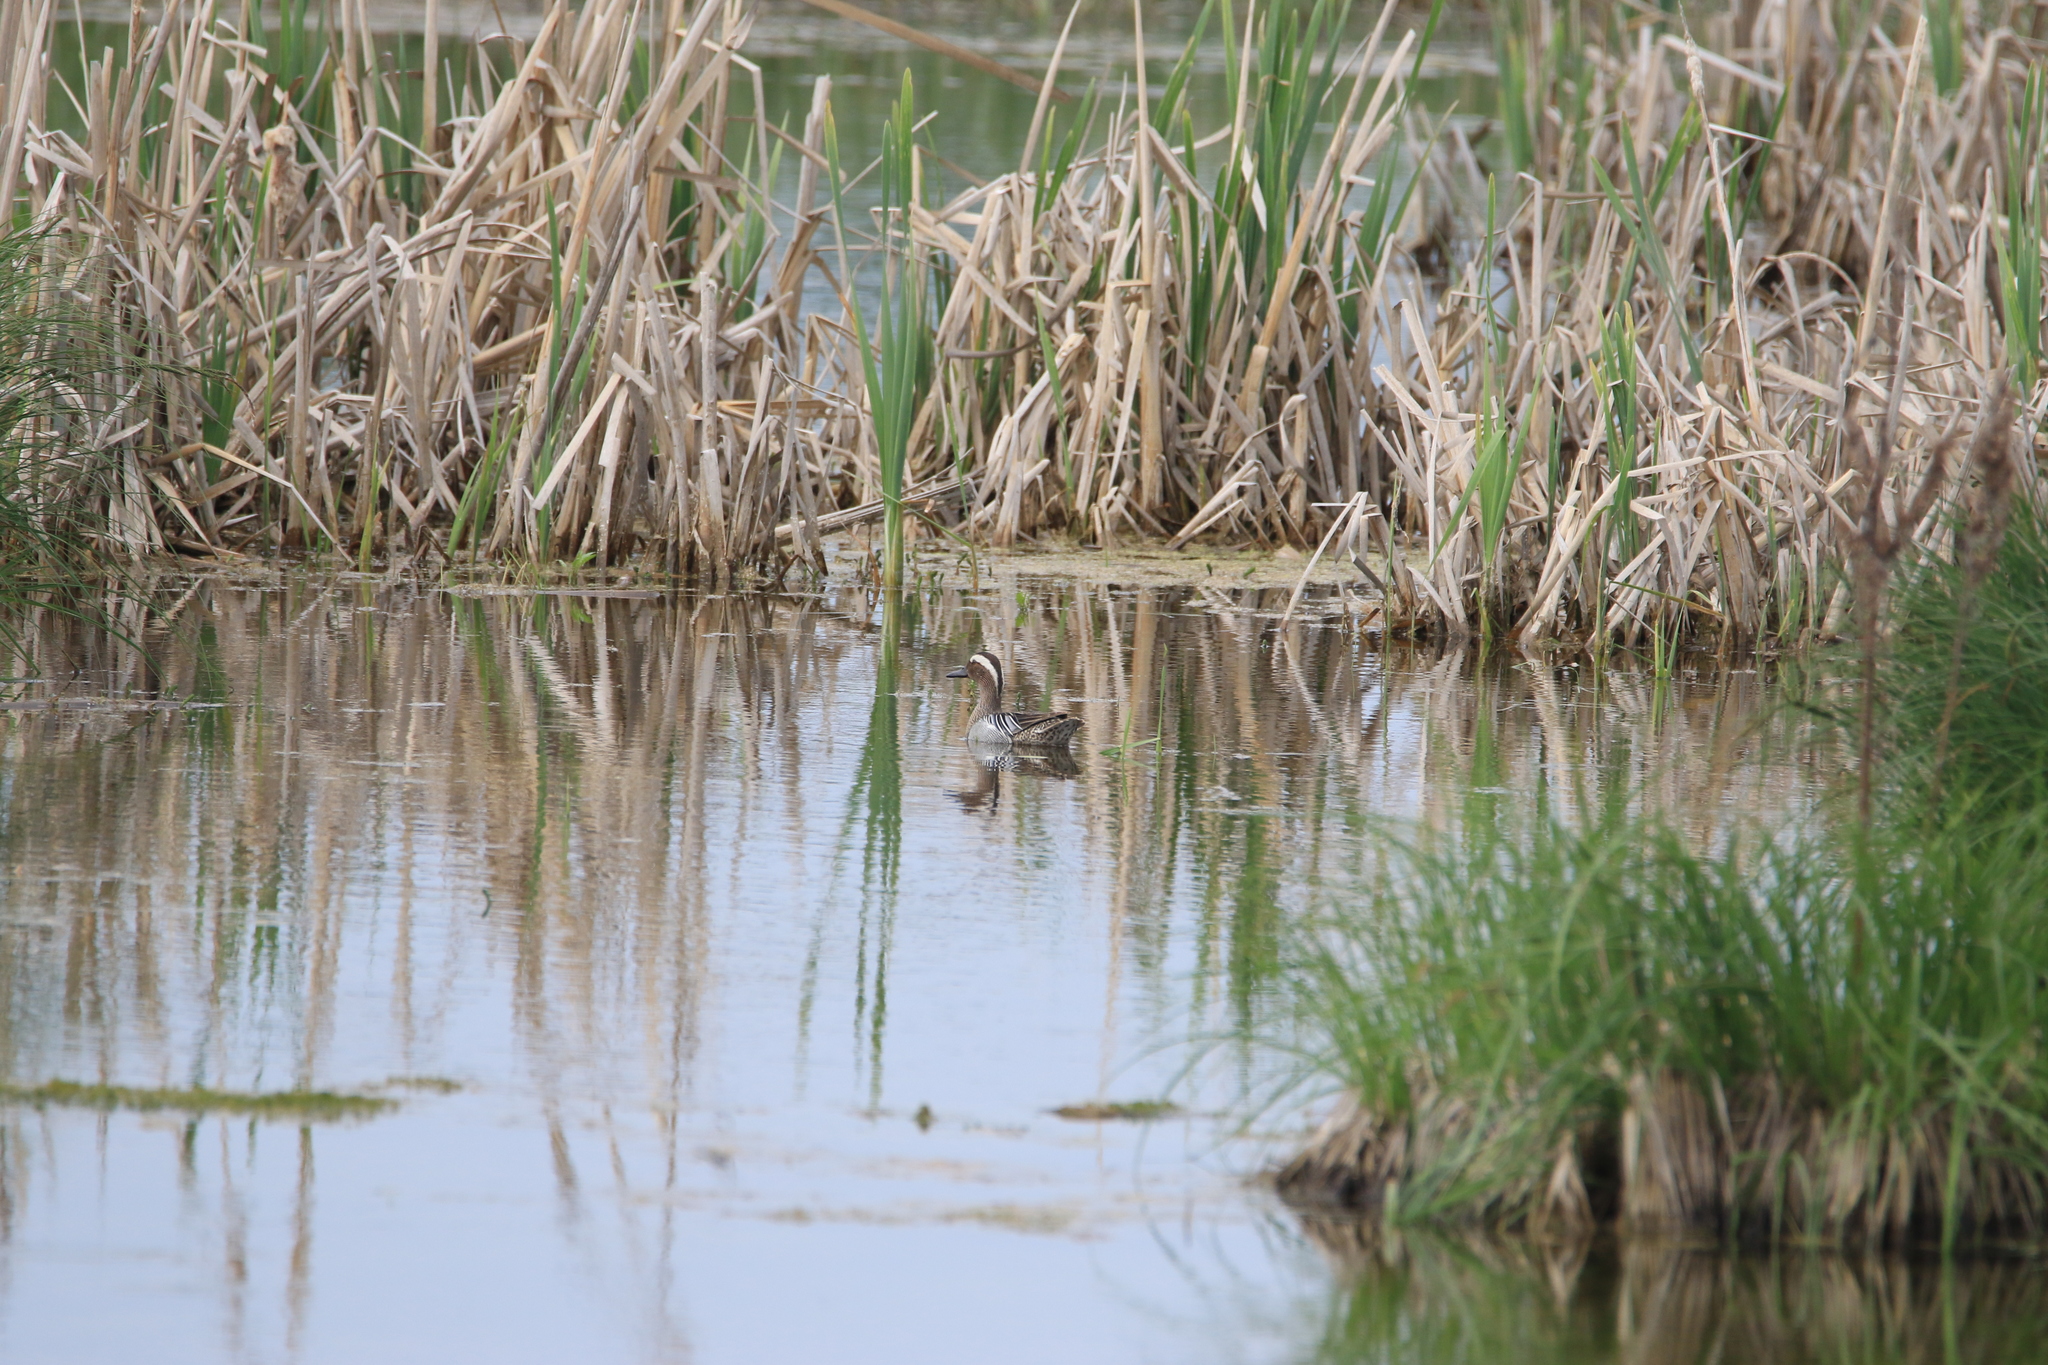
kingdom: Animalia
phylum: Chordata
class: Aves
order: Anseriformes
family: Anatidae
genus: Spatula
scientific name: Spatula querquedula
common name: Garganey
